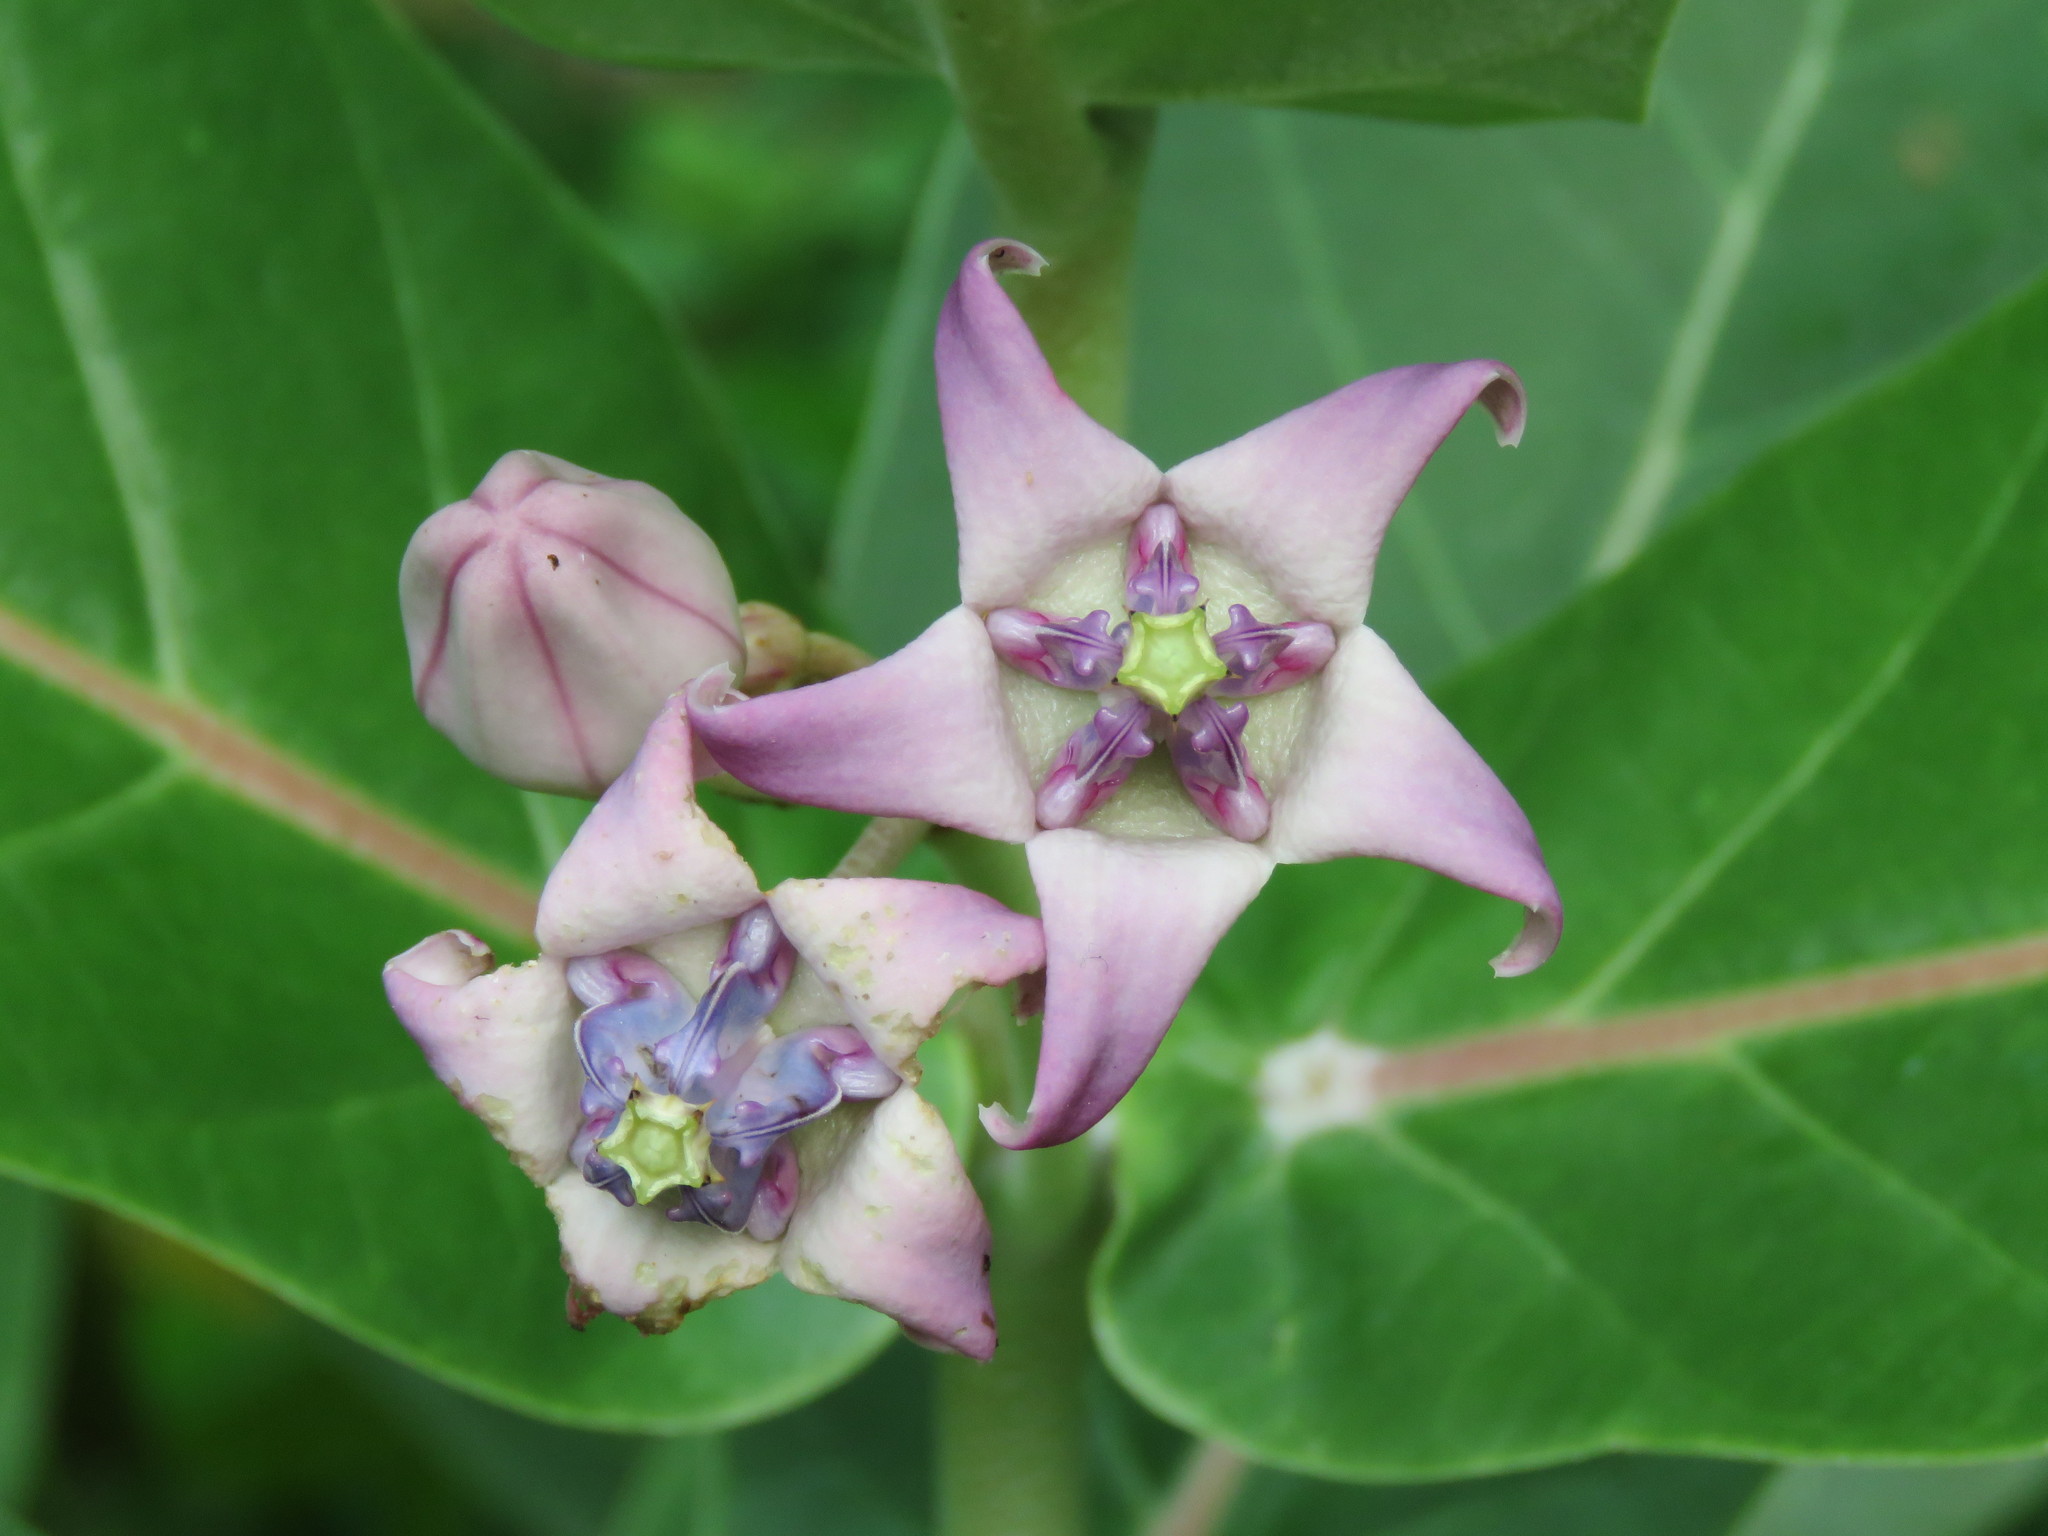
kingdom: Plantae
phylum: Tracheophyta
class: Magnoliopsida
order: Gentianales
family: Apocynaceae
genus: Calotropis
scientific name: Calotropis gigantea
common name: Crown flower
